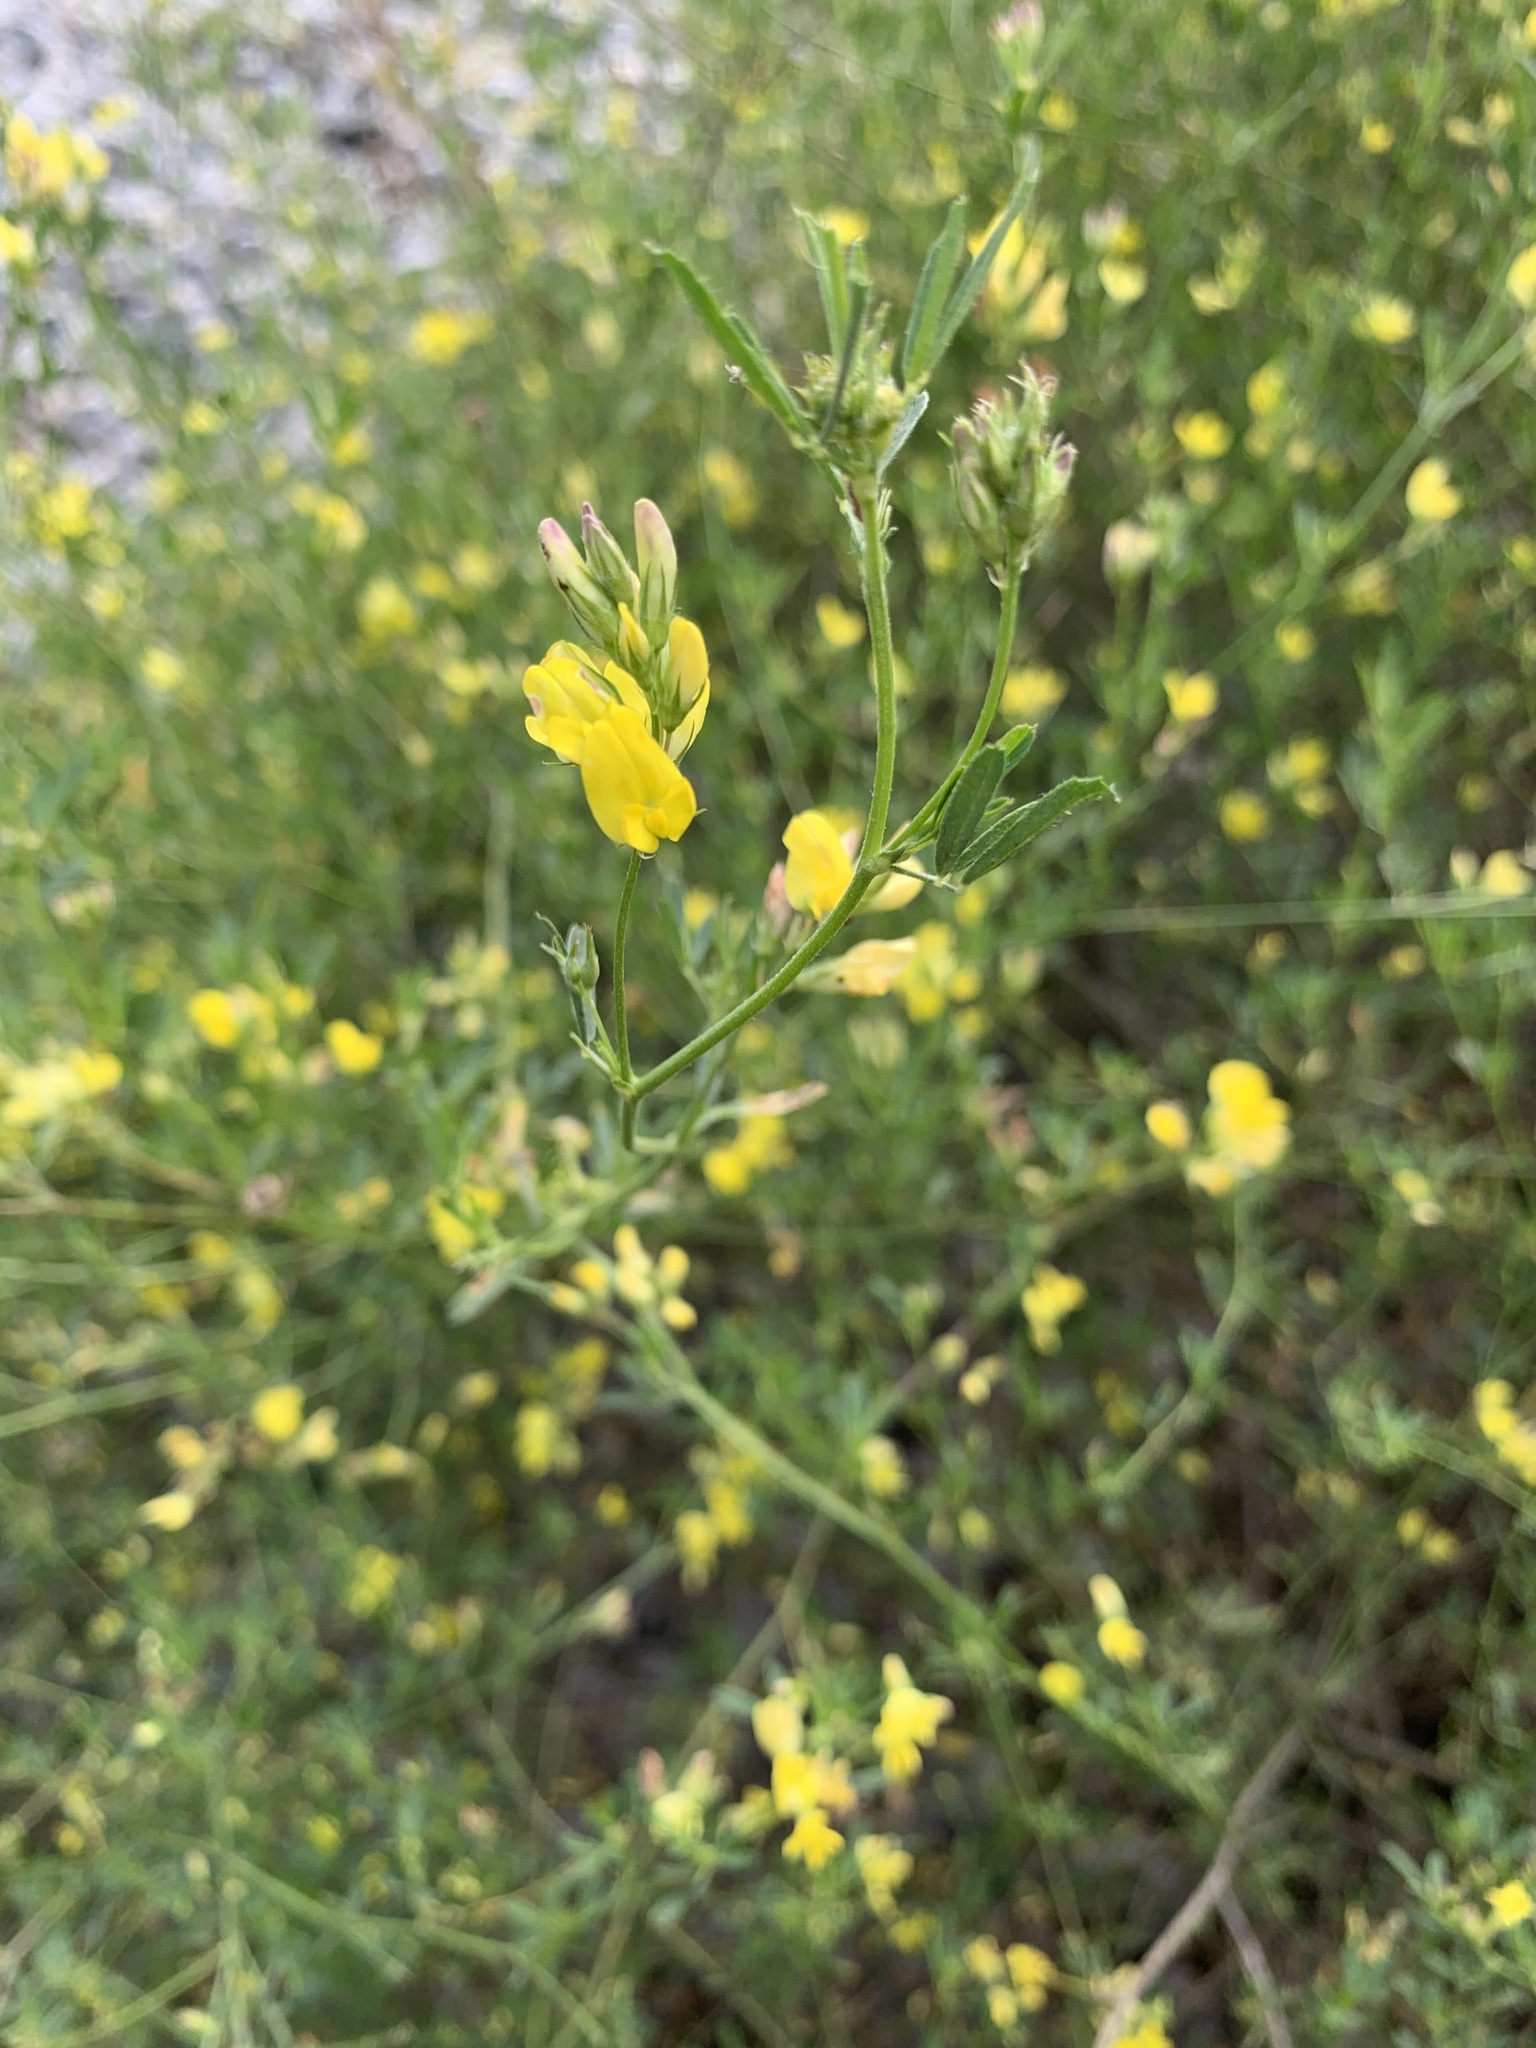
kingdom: Plantae
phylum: Tracheophyta
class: Magnoliopsida
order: Fabales
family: Fabaceae
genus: Medicago
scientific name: Medicago falcata
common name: Sickle medick
